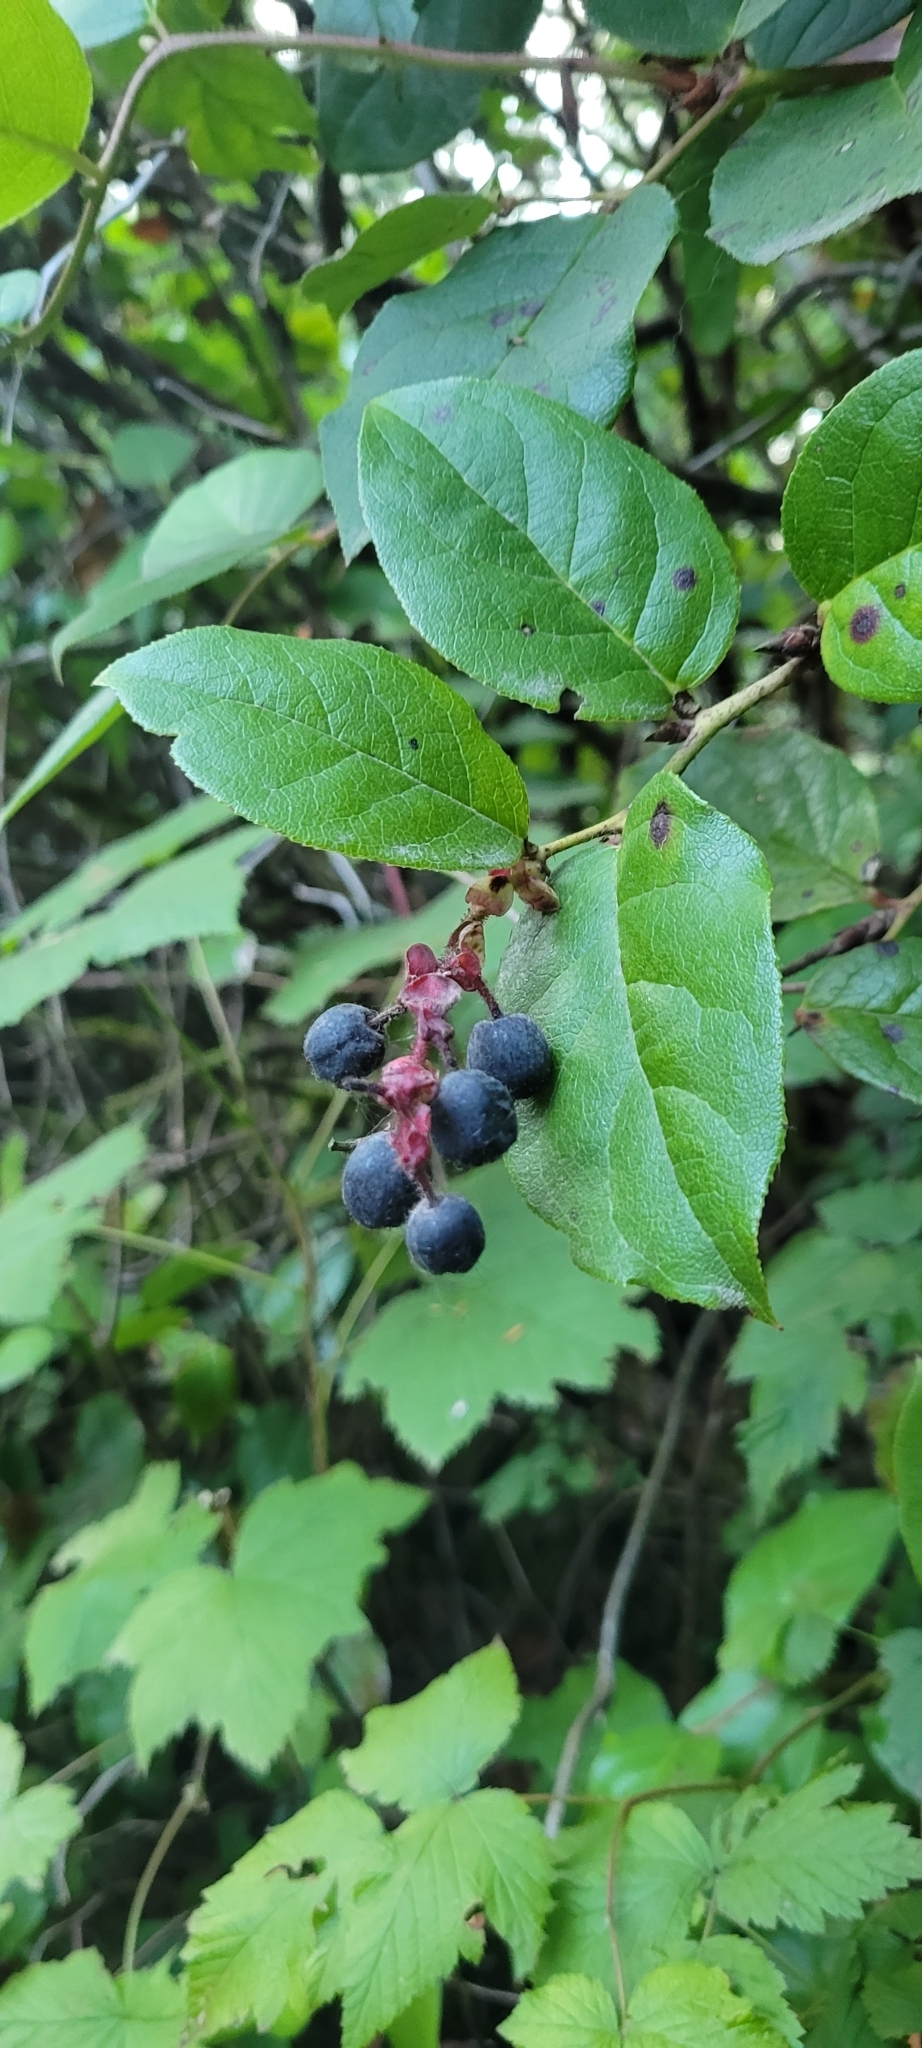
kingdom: Plantae
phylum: Tracheophyta
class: Magnoliopsida
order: Ericales
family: Ericaceae
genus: Gaultheria
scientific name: Gaultheria shallon
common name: Shallon
